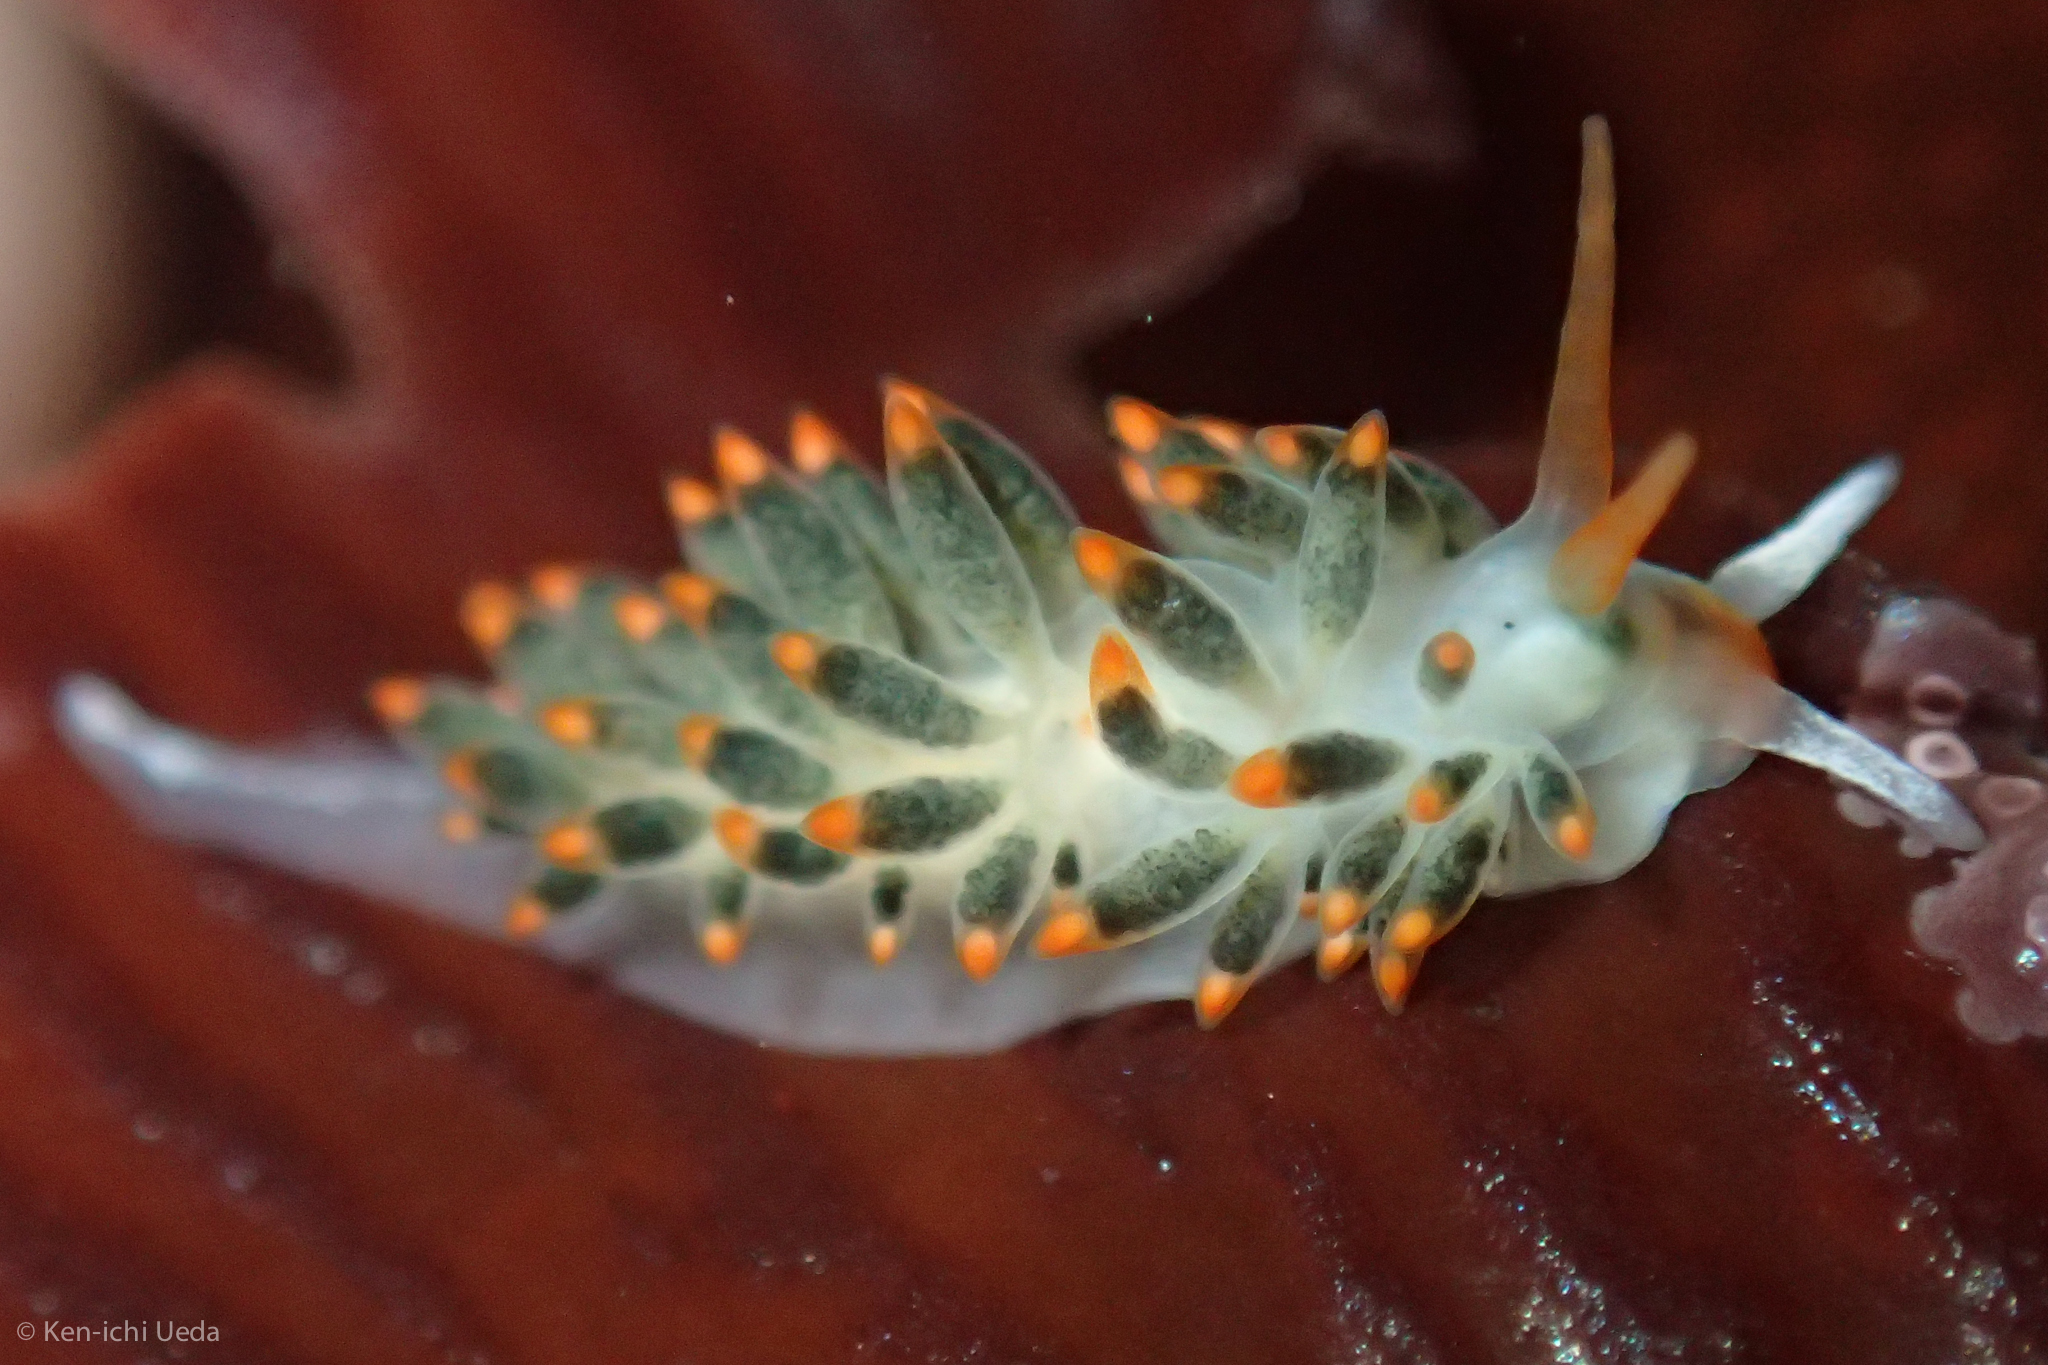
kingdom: Animalia
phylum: Mollusca
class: Gastropoda
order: Nudibranchia
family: Trinchesiidae
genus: Diaphoreolis
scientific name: Diaphoreolis lagunae
